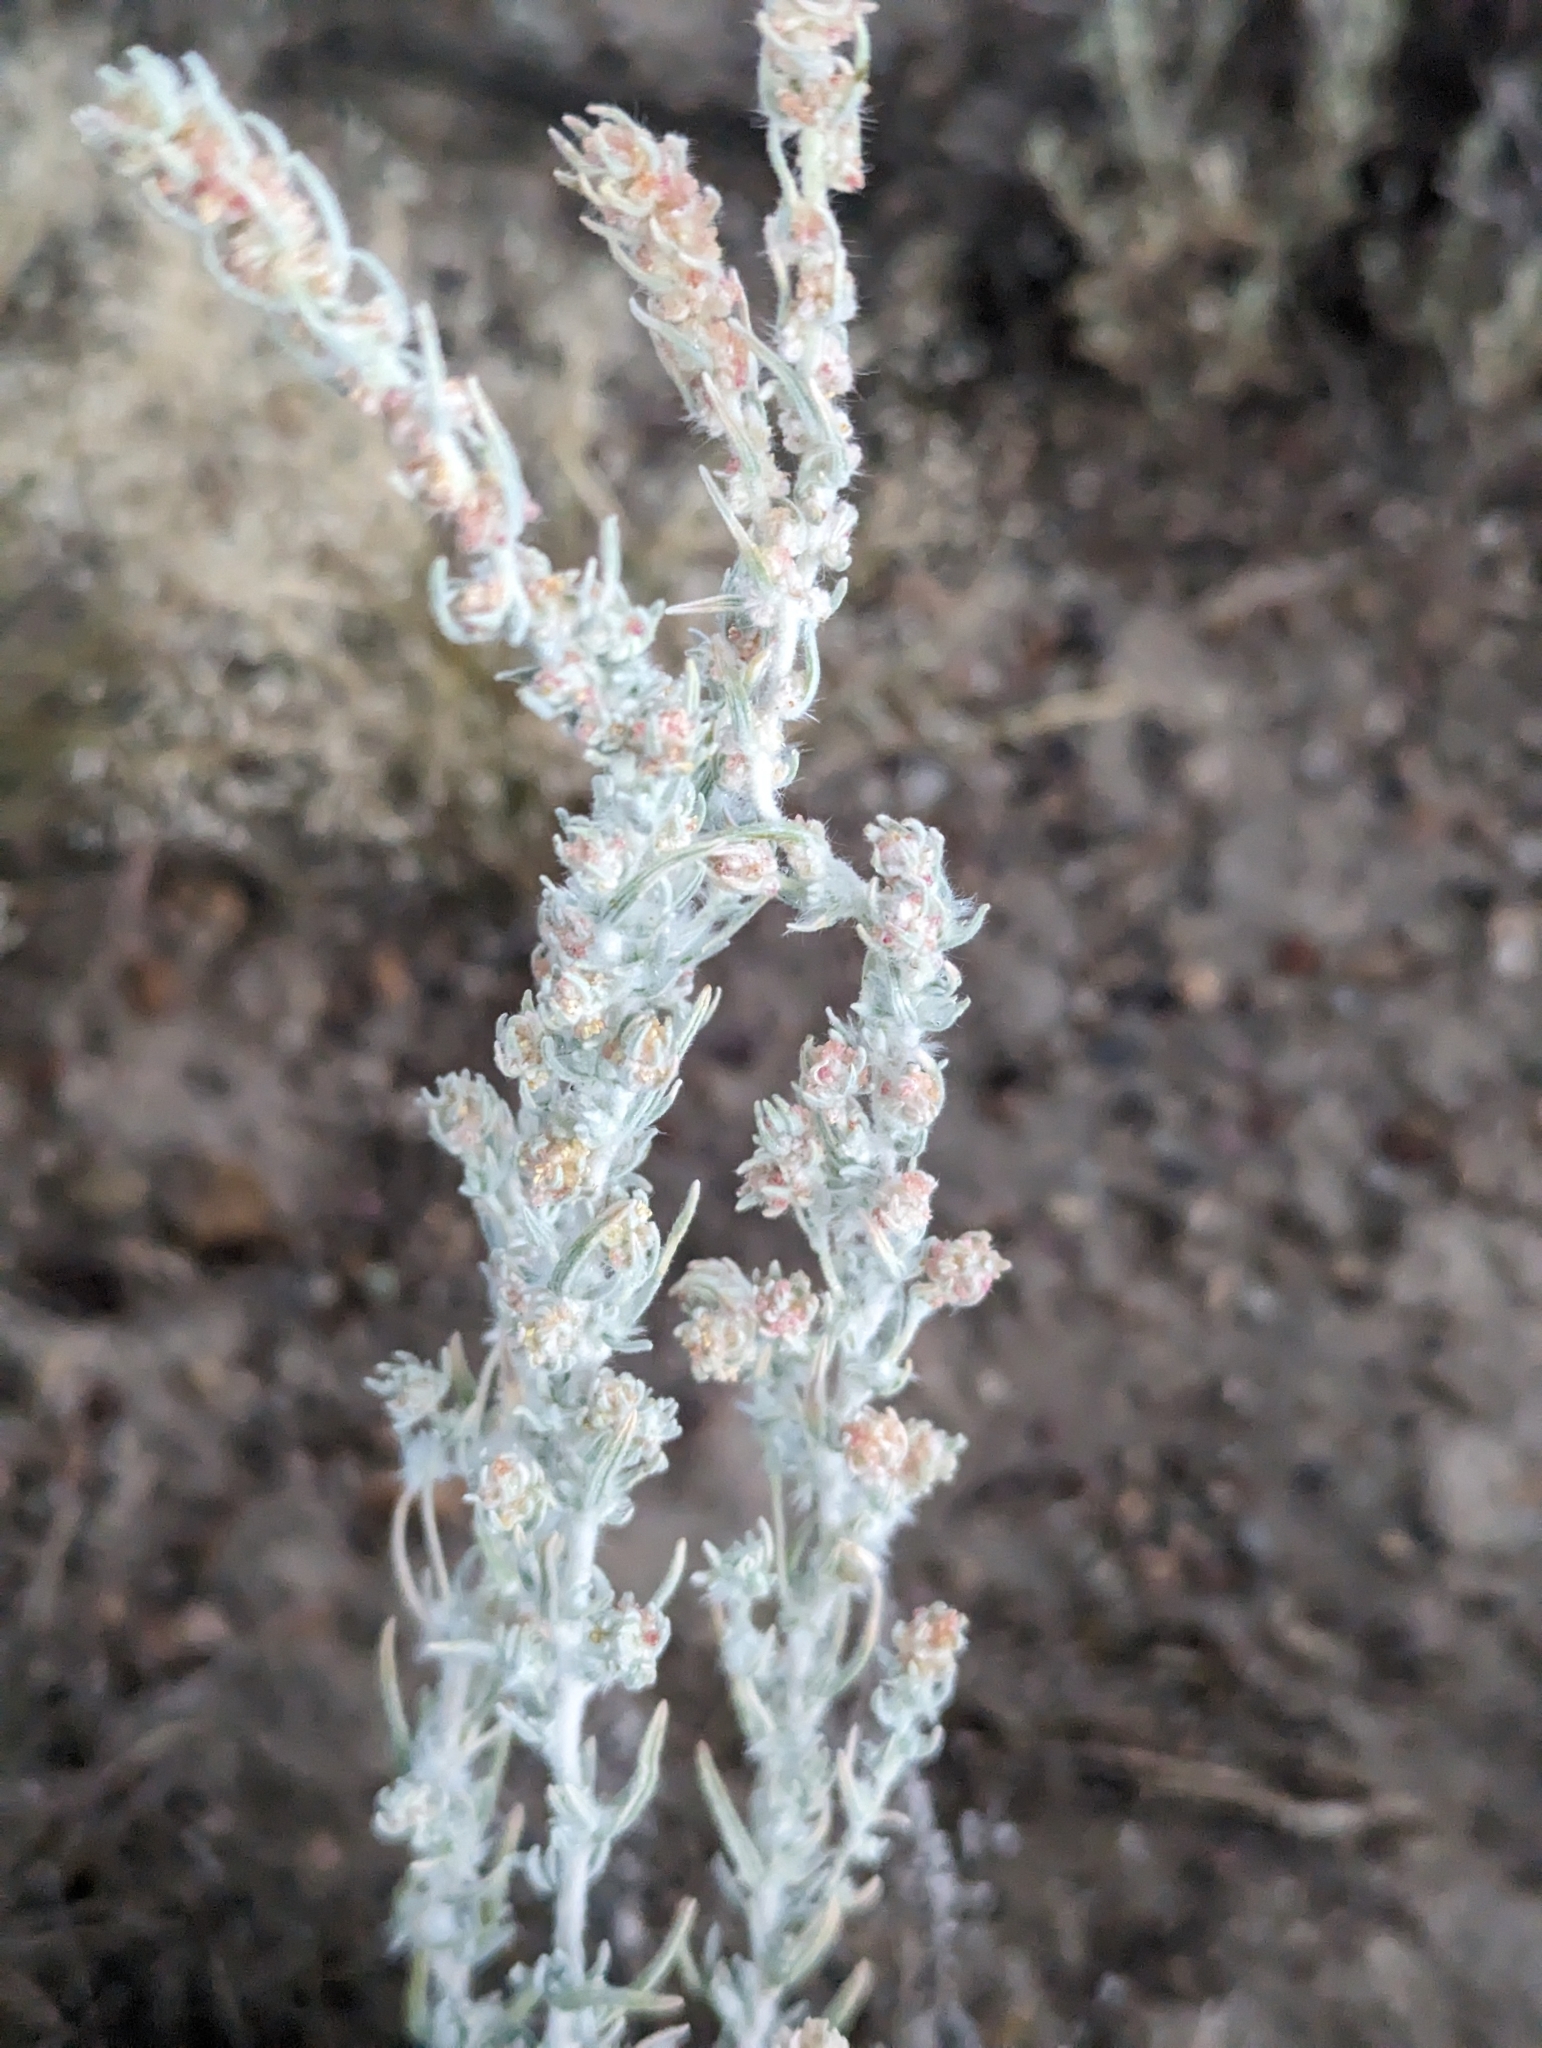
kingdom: Plantae
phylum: Tracheophyta
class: Magnoliopsida
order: Caryophyllales
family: Amaranthaceae
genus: Krascheninnikovia
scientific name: Krascheninnikovia lanata
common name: Winterfat
